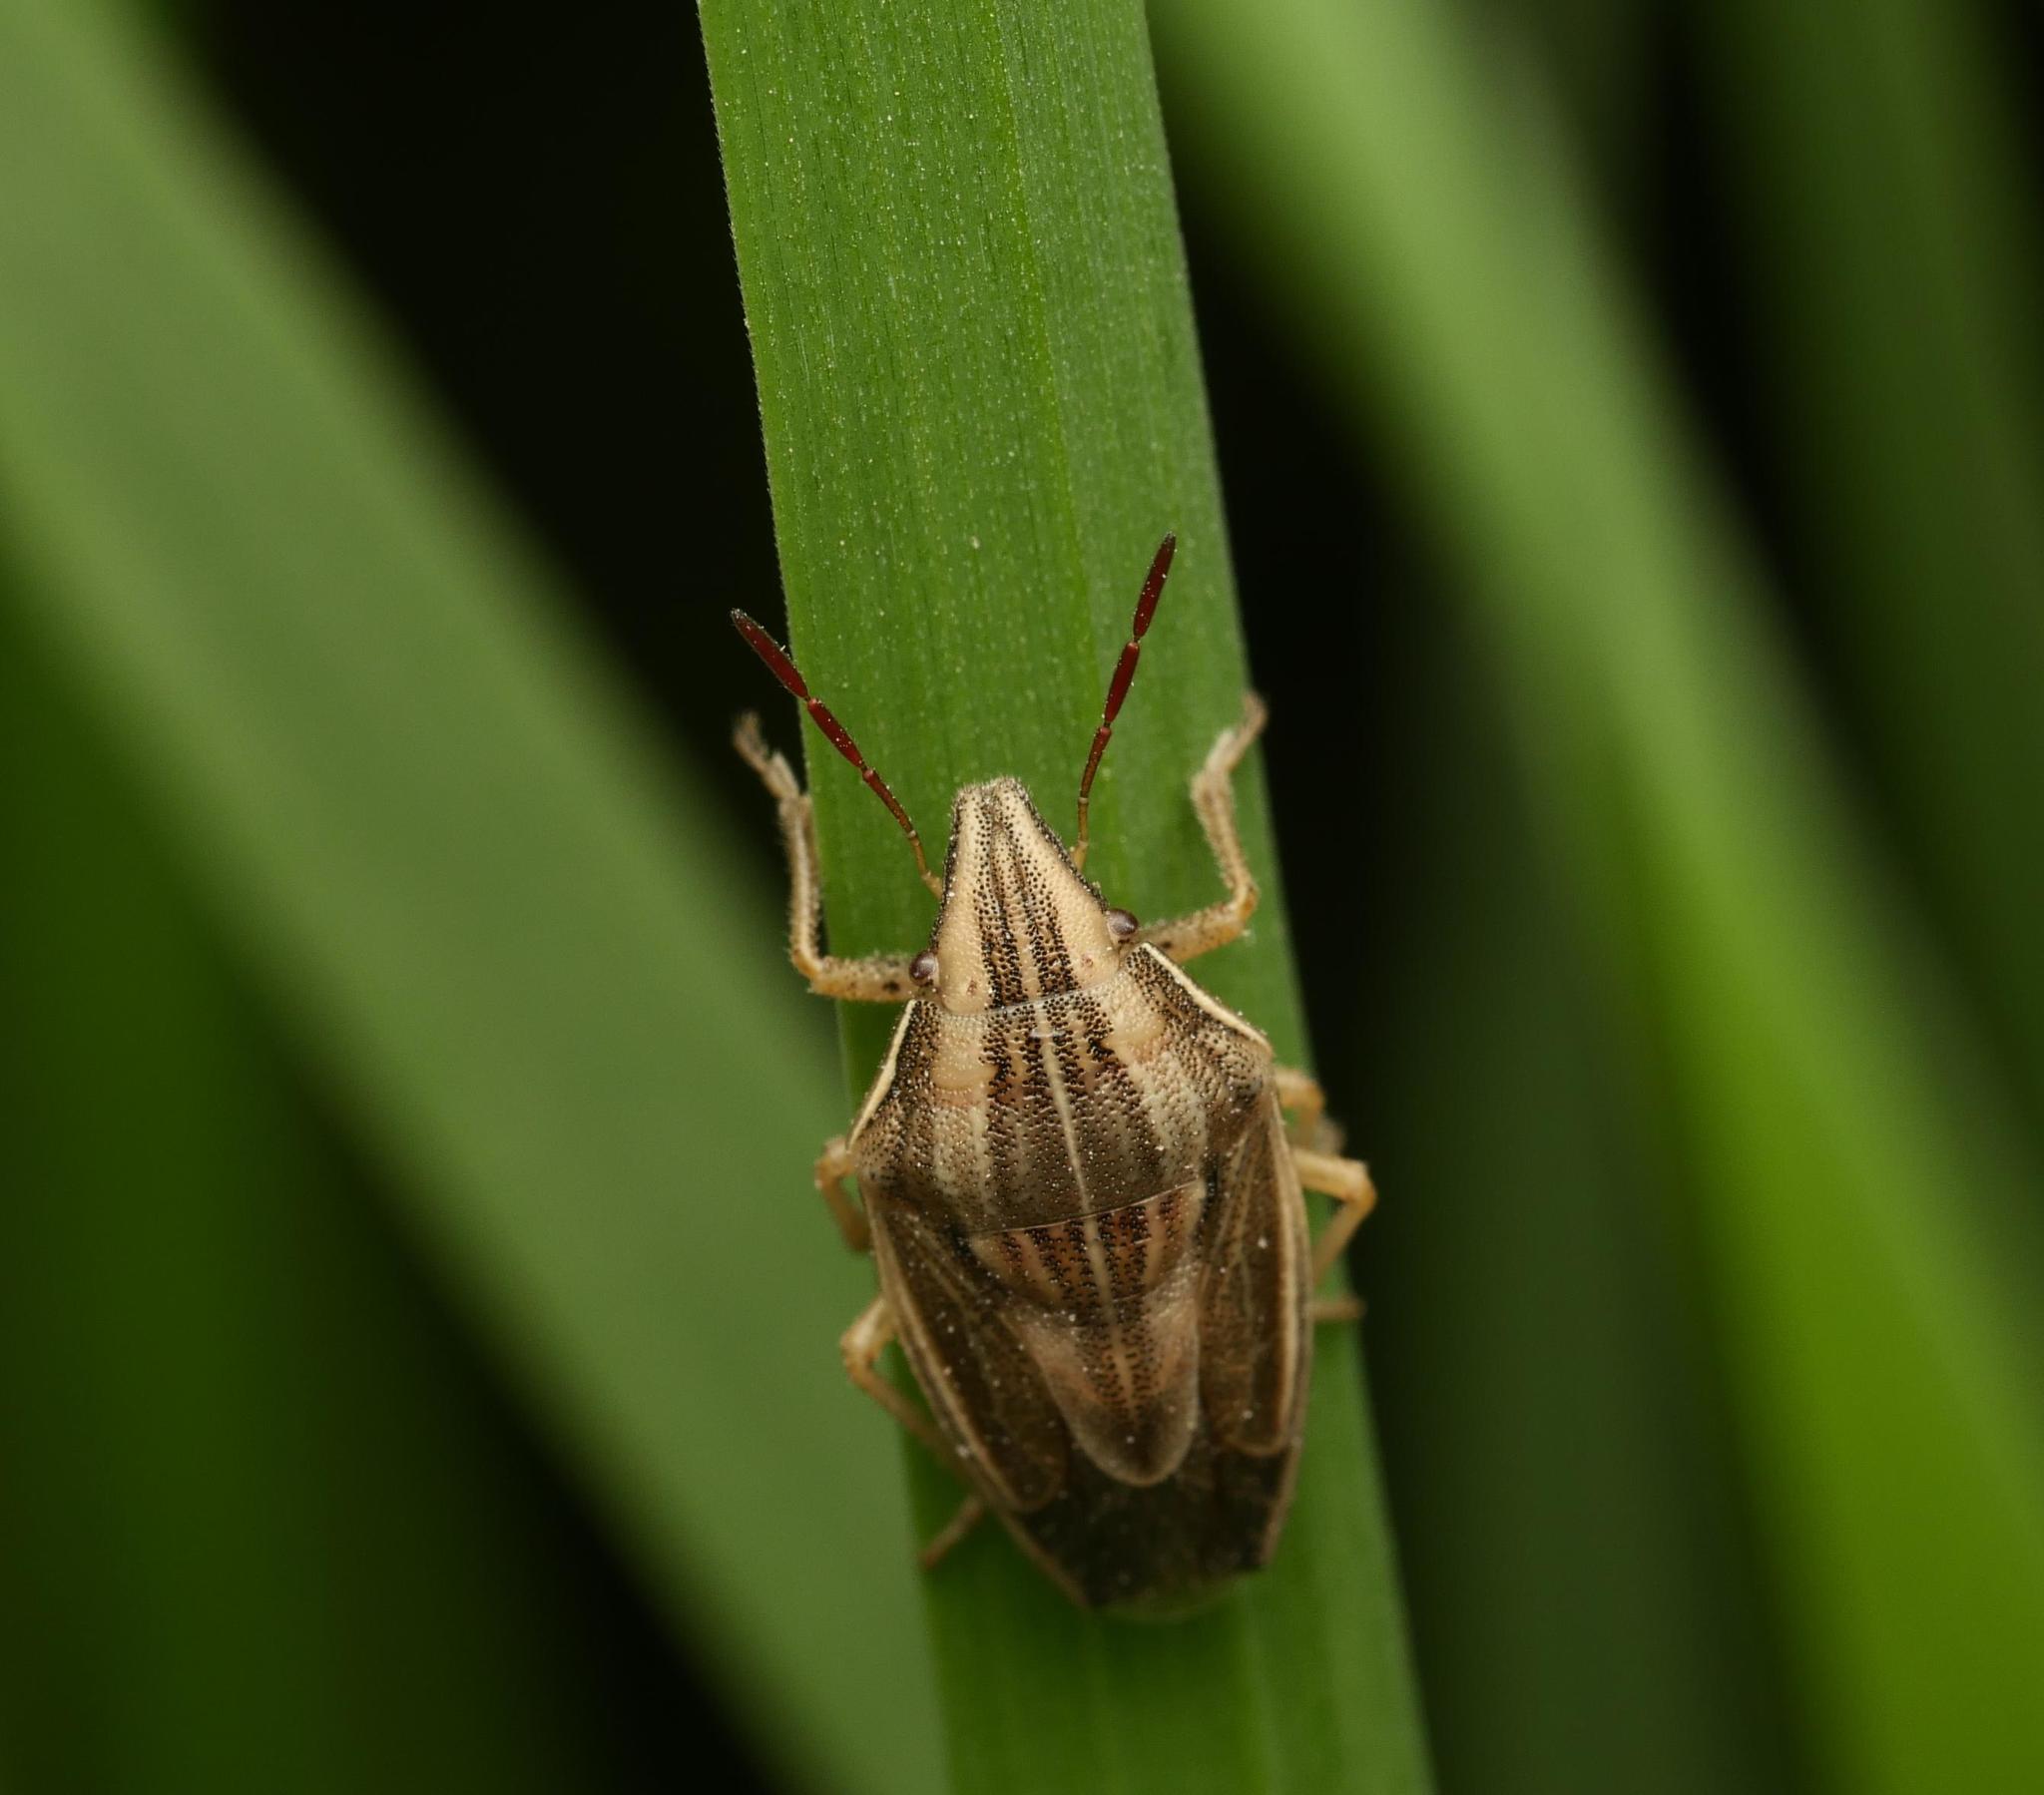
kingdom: Animalia
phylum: Arthropoda
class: Insecta
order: Hemiptera
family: Pentatomidae
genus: Aelia
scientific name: Aelia acuminata
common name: Bishop's mitre
